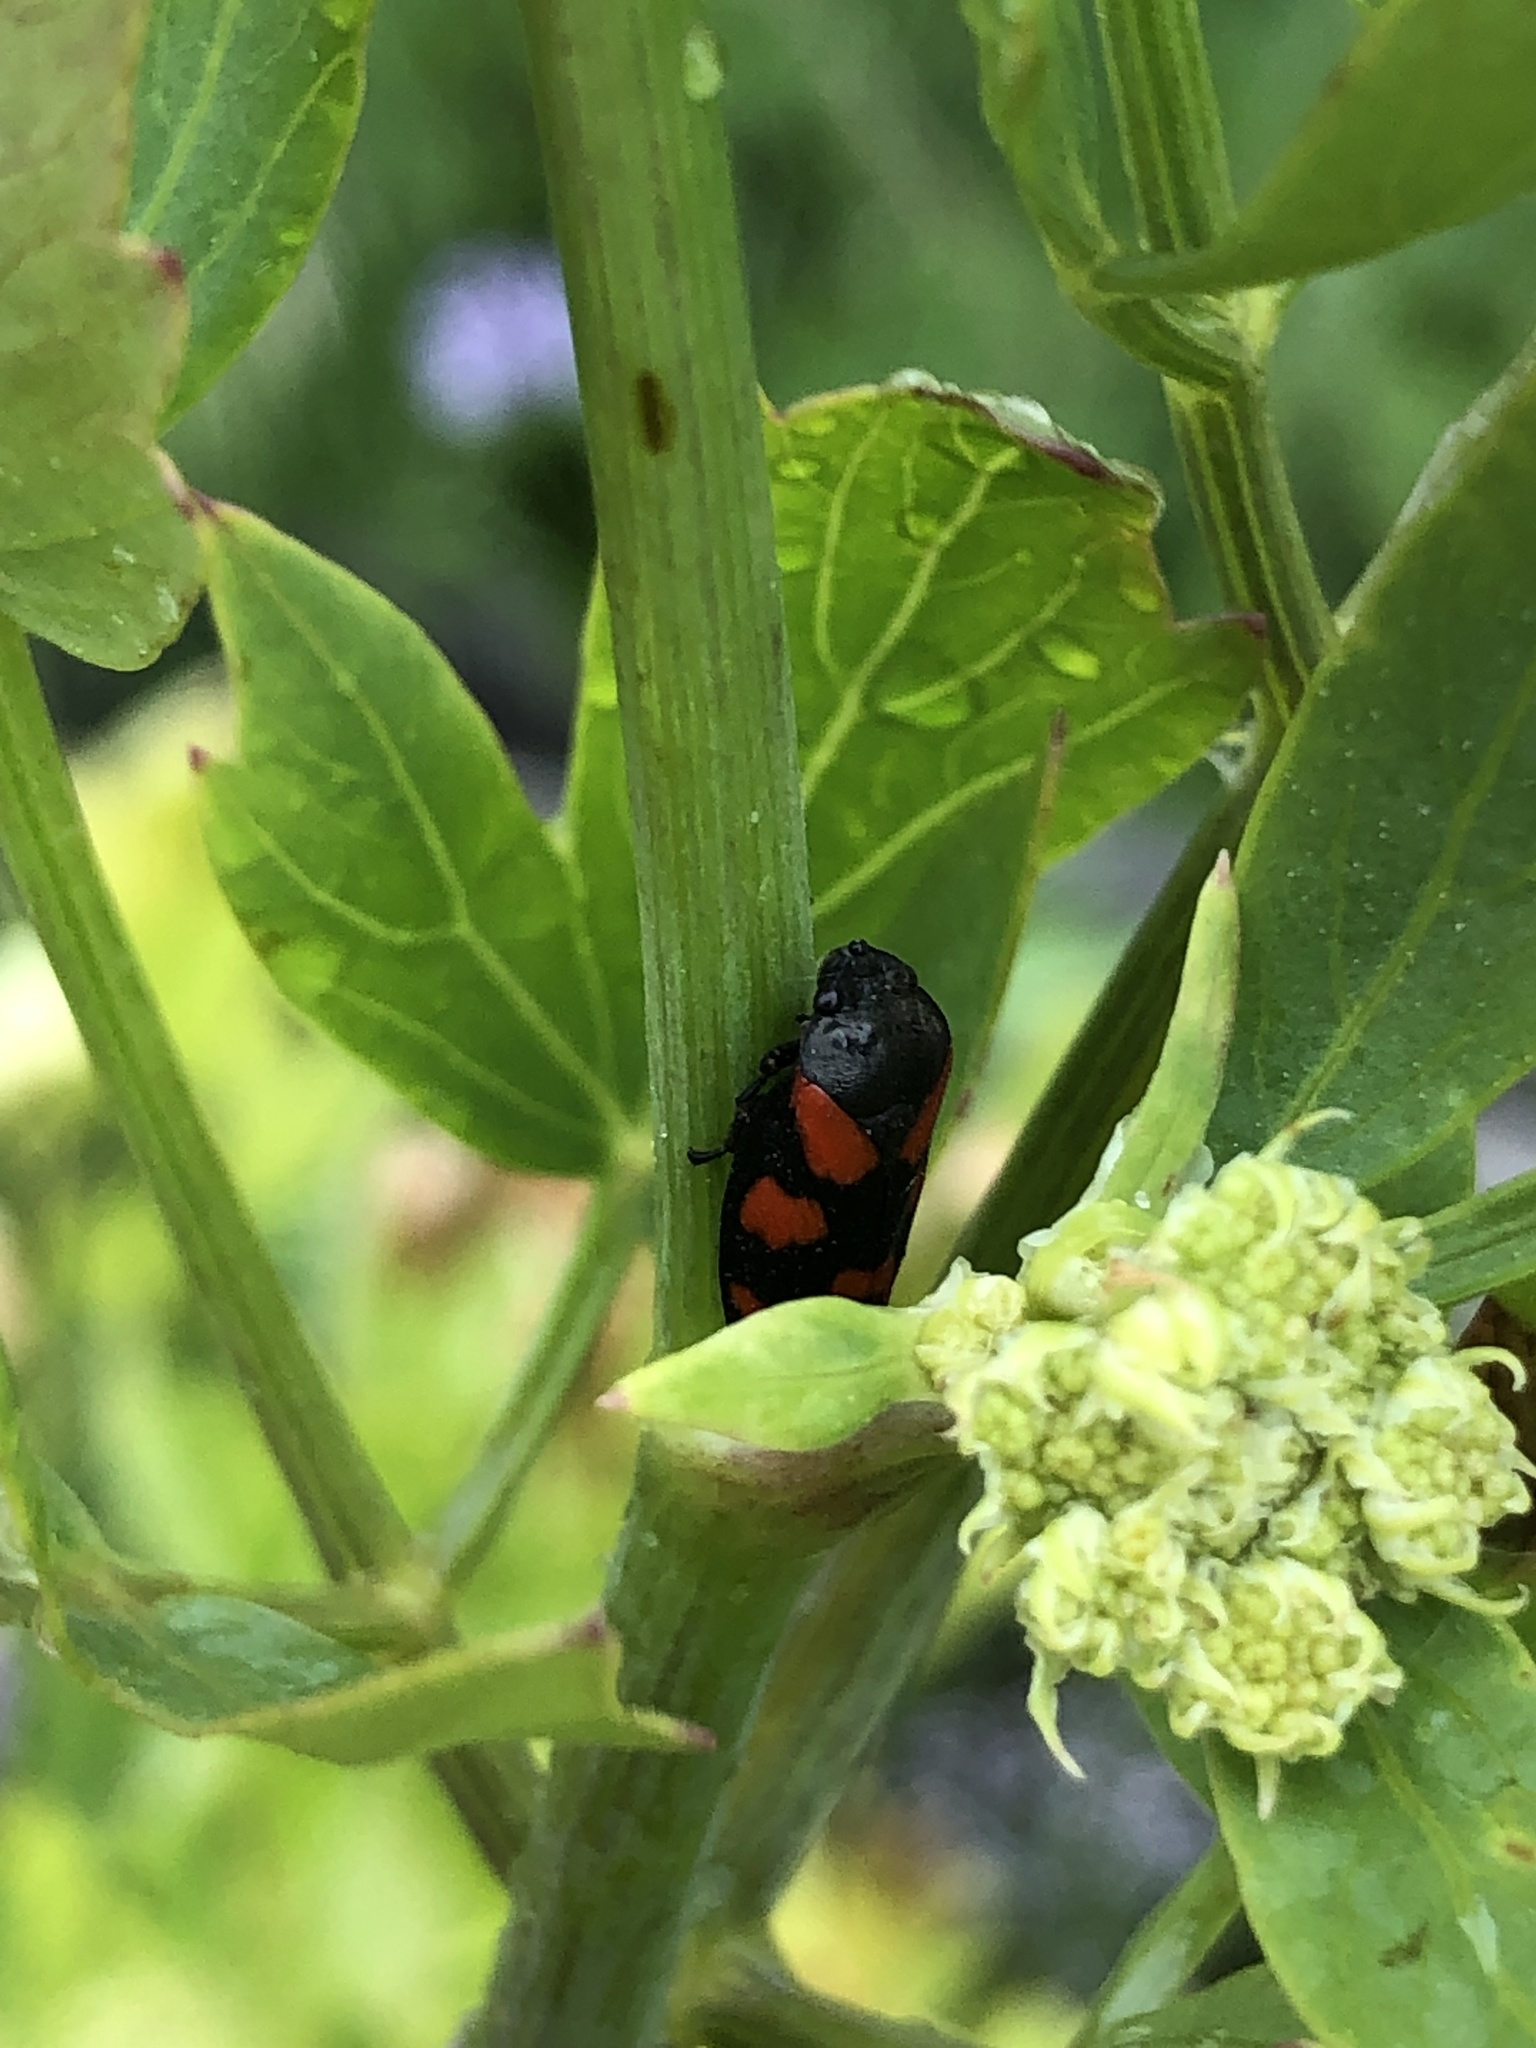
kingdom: Animalia
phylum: Arthropoda
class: Insecta
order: Hemiptera
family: Cercopidae
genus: Cercopis
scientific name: Cercopis vulnerata
